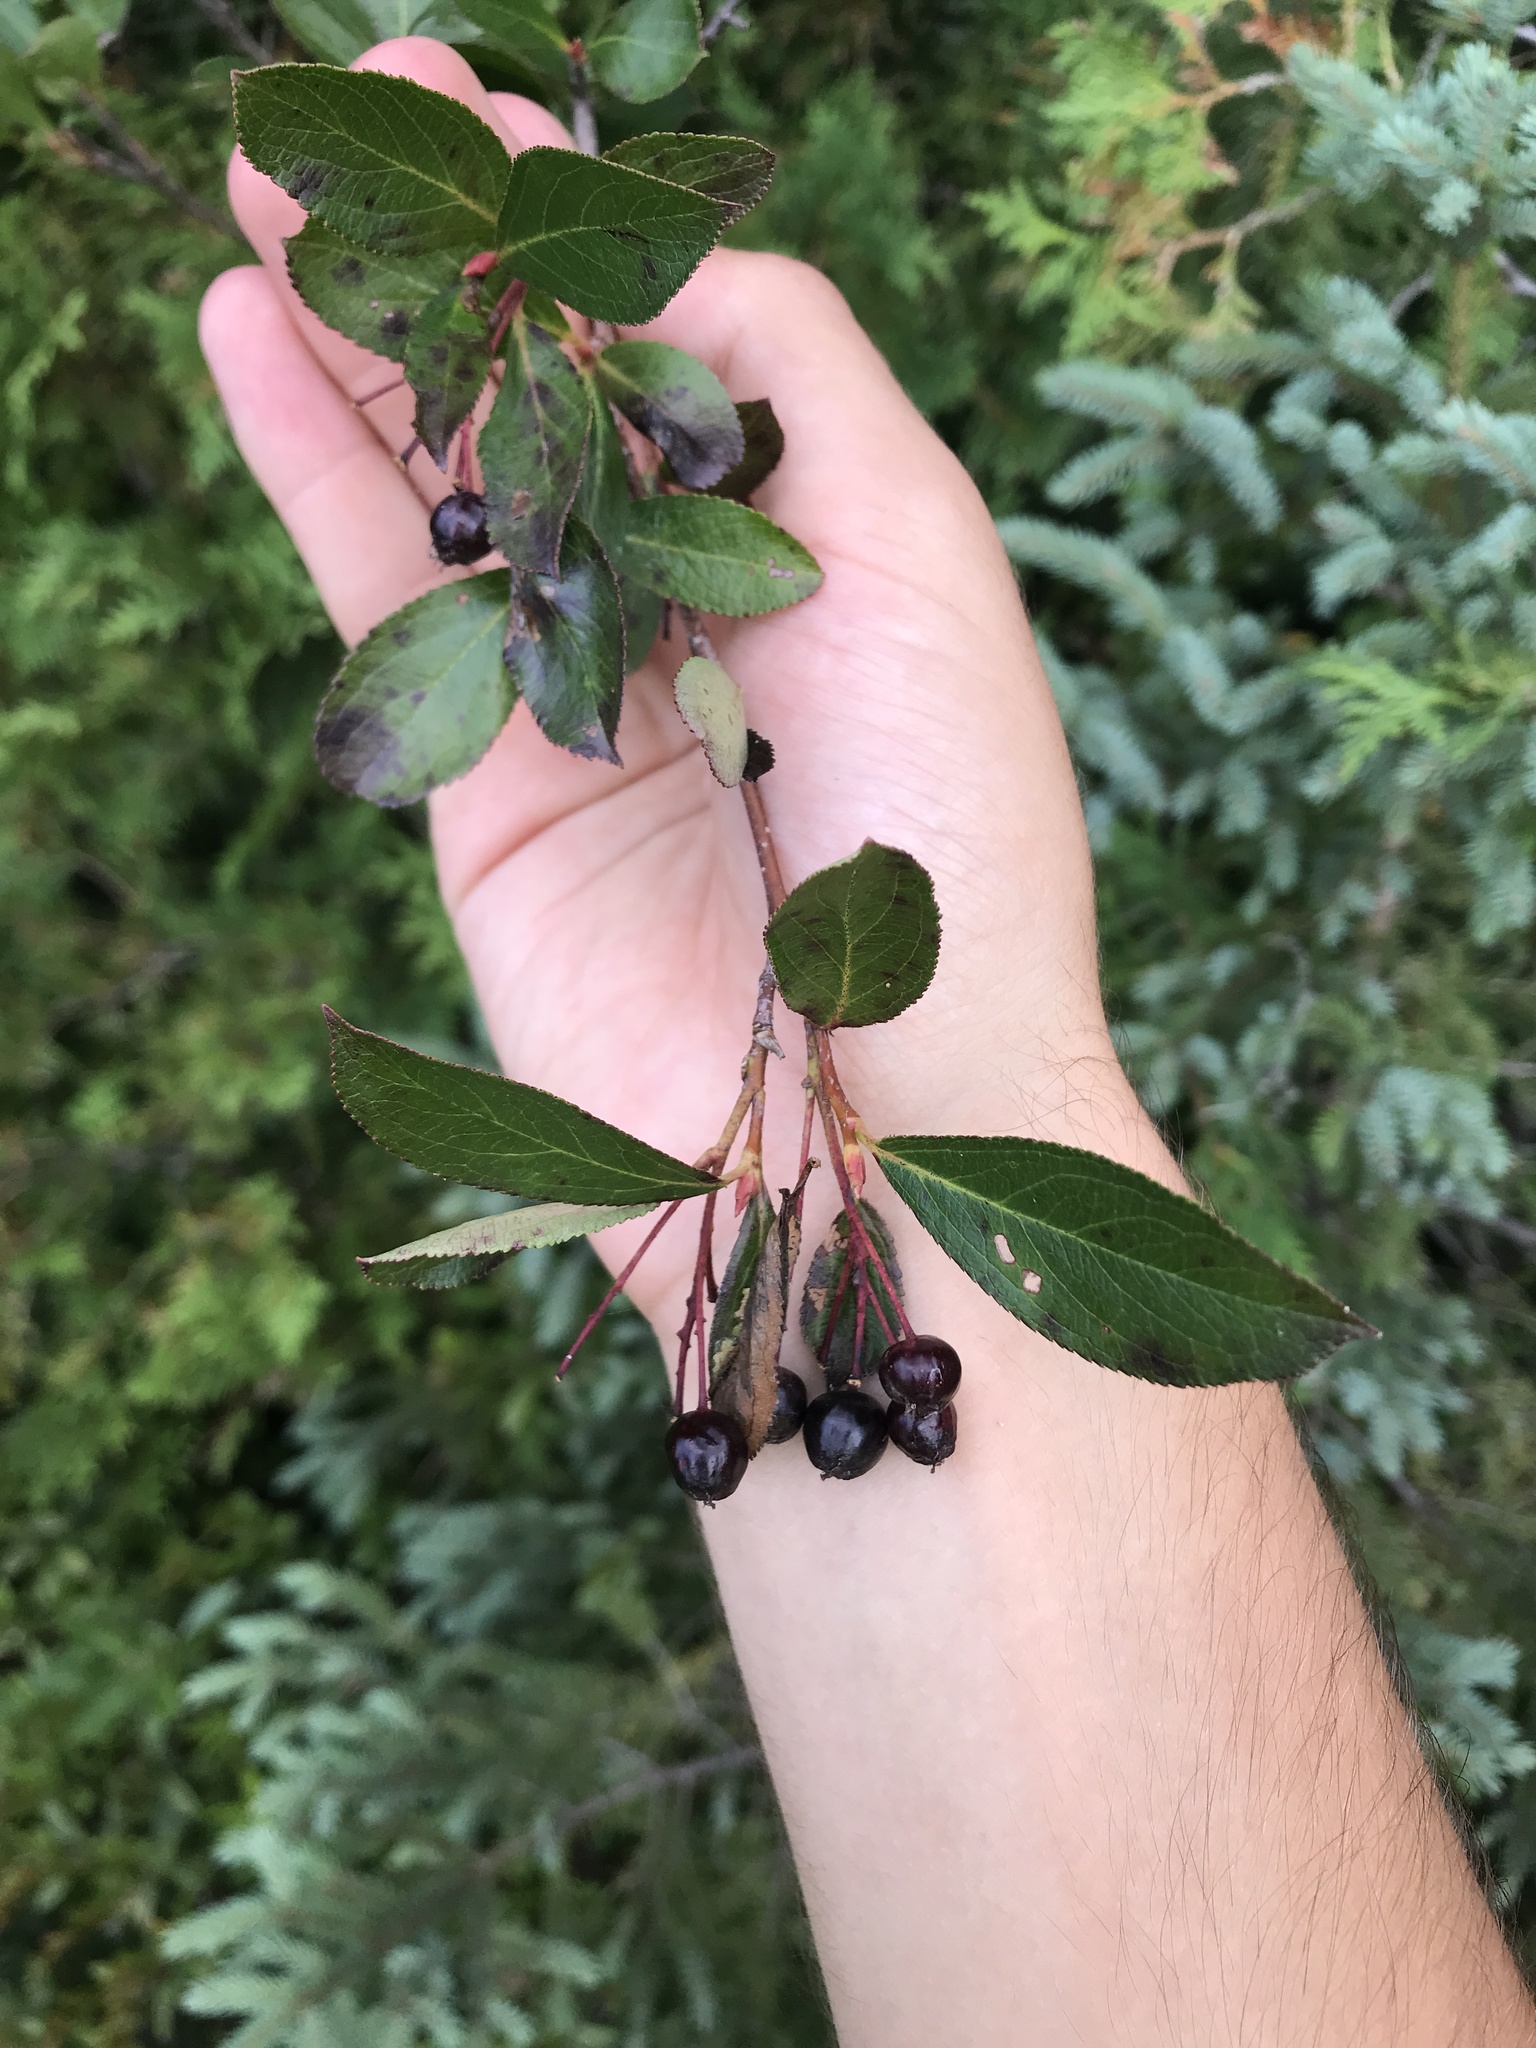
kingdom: Plantae
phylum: Tracheophyta
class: Magnoliopsida
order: Rosales
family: Rosaceae
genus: Aronia
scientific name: Aronia melanocarpa
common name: Black chokeberry
